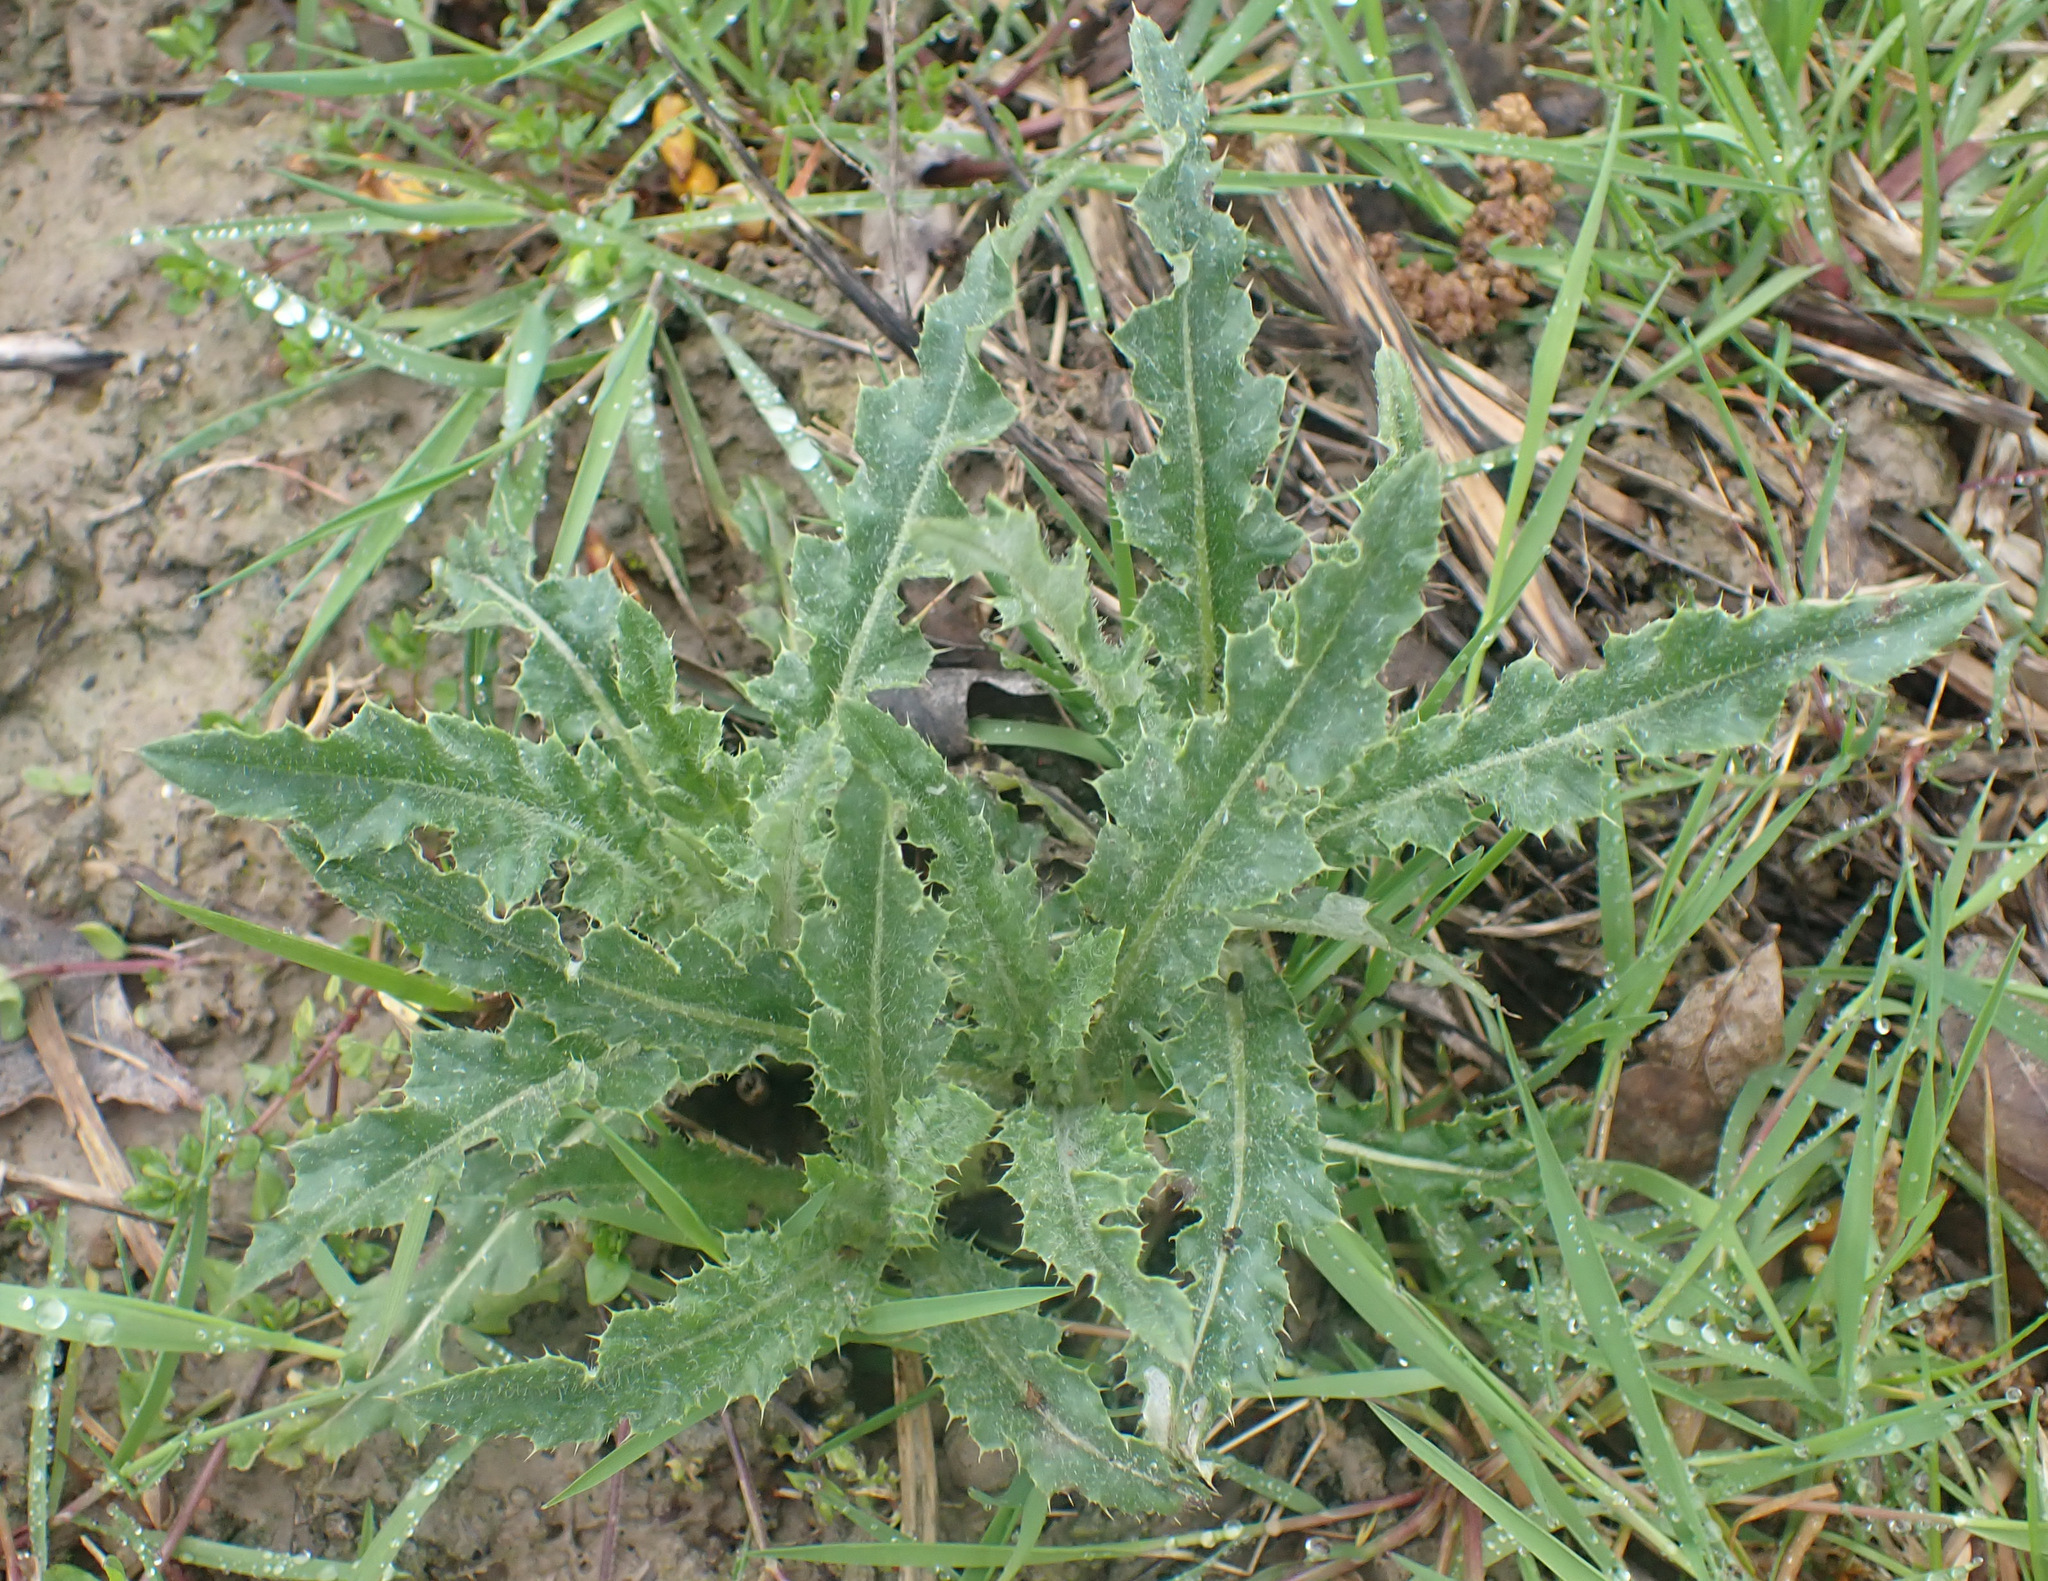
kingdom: Plantae
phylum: Tracheophyta
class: Magnoliopsida
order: Asterales
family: Asteraceae
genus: Cirsium
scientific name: Cirsium arvense
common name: Creeping thistle
